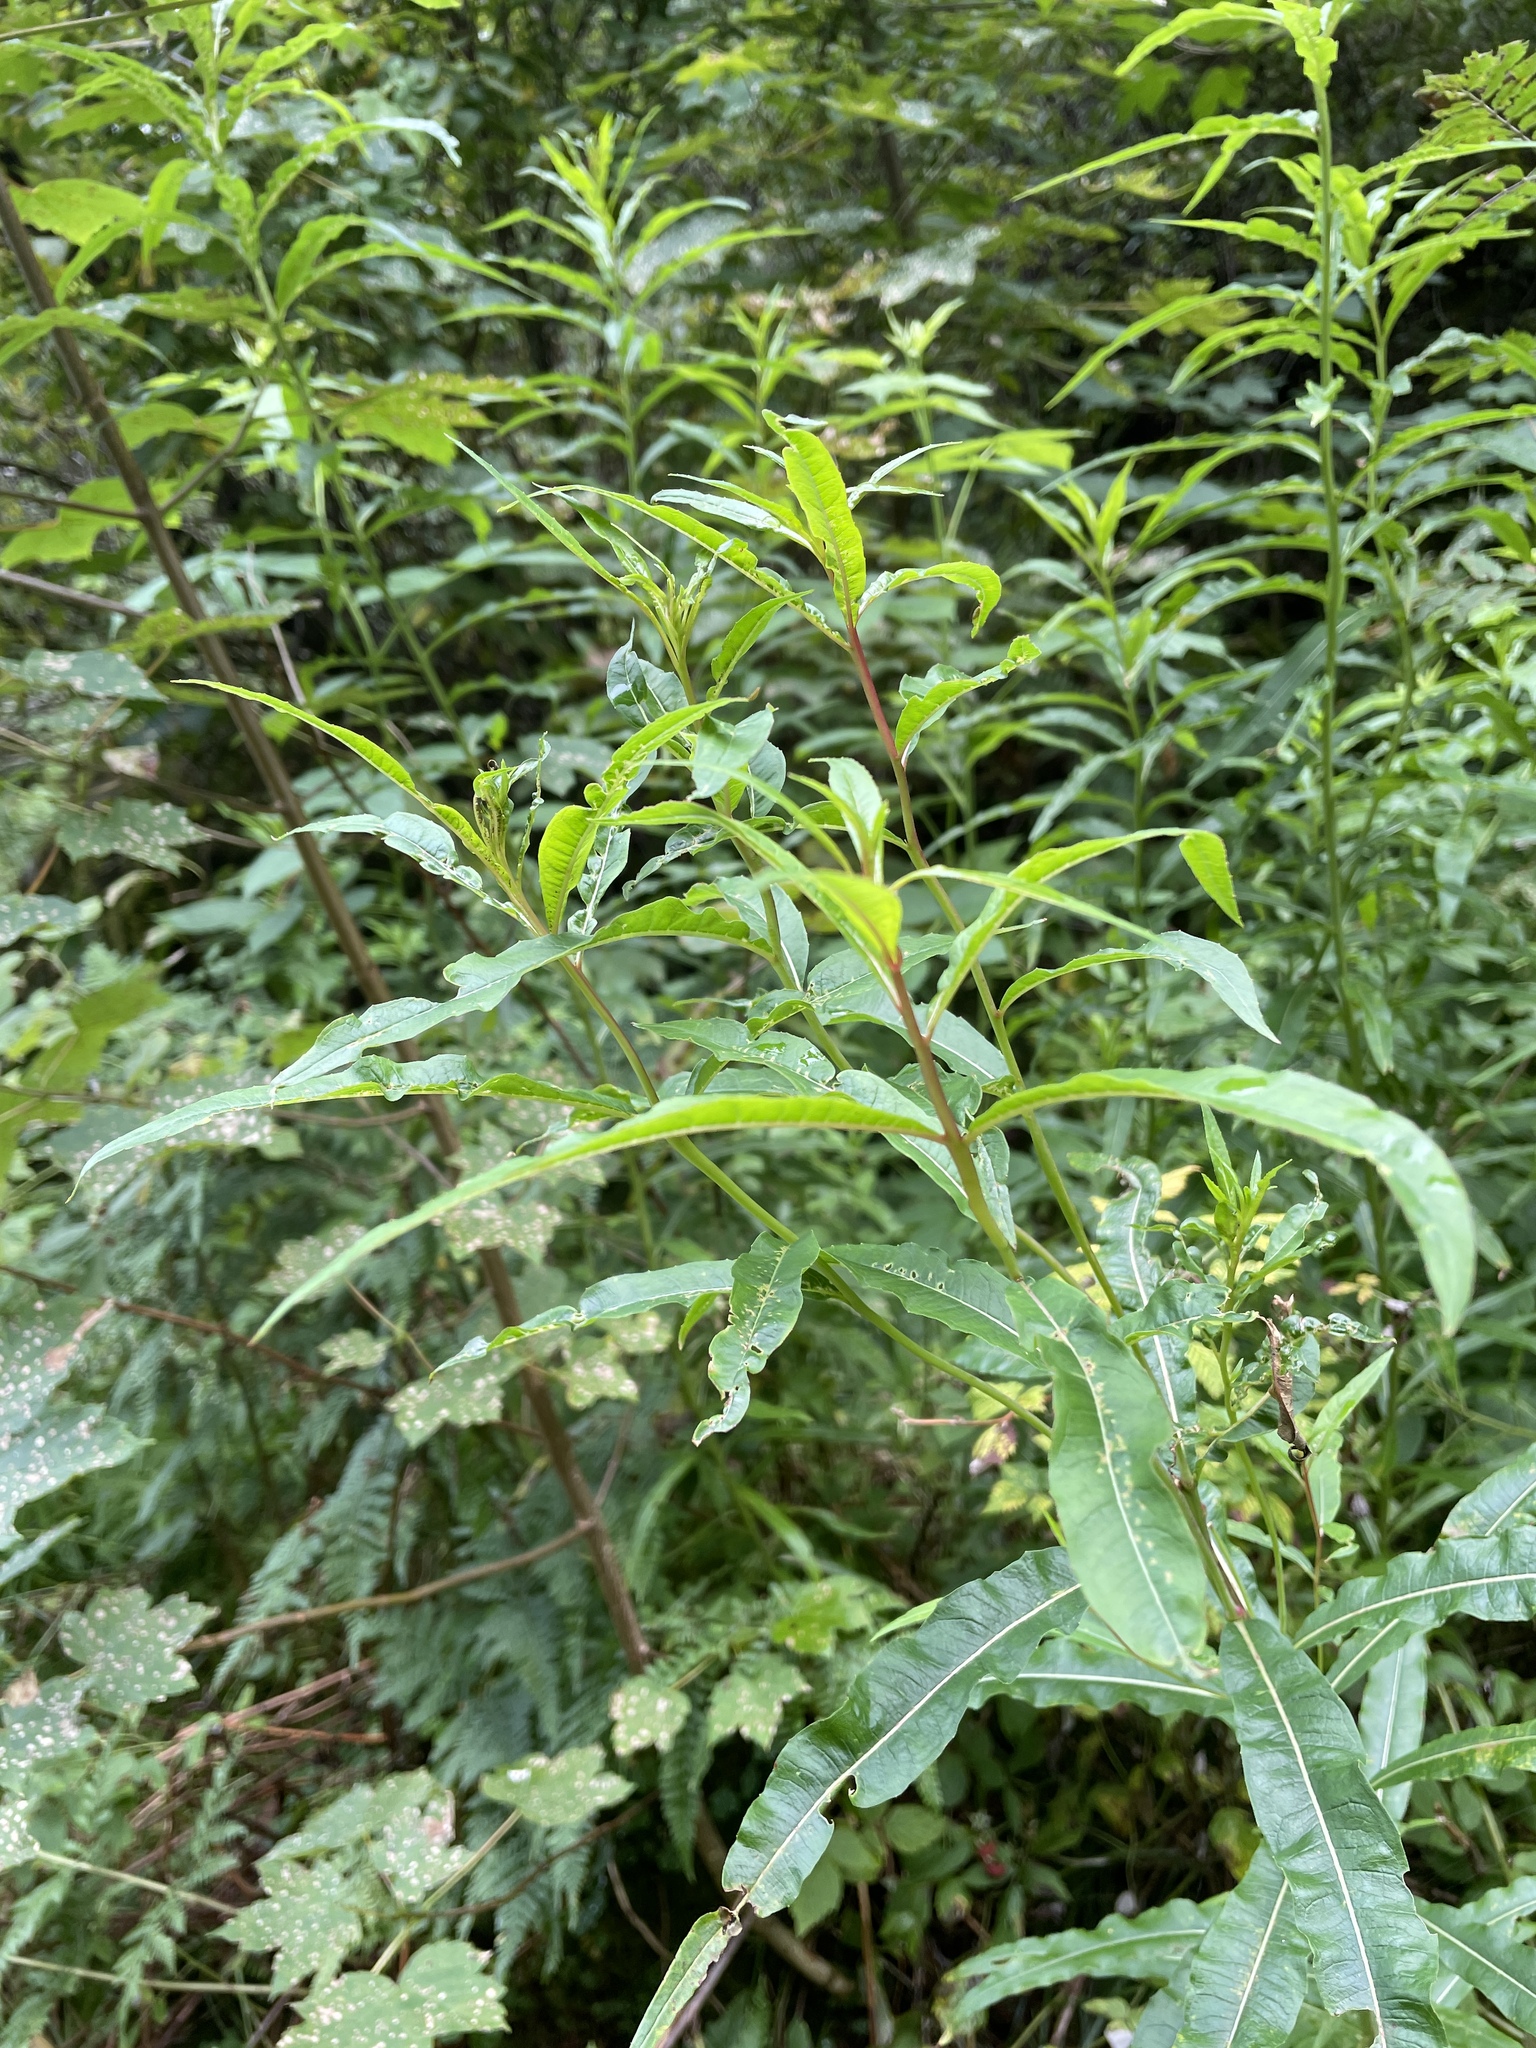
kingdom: Plantae
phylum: Tracheophyta
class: Magnoliopsida
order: Myrtales
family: Onagraceae
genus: Chamaenerion
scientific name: Chamaenerion angustifolium
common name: Fireweed
